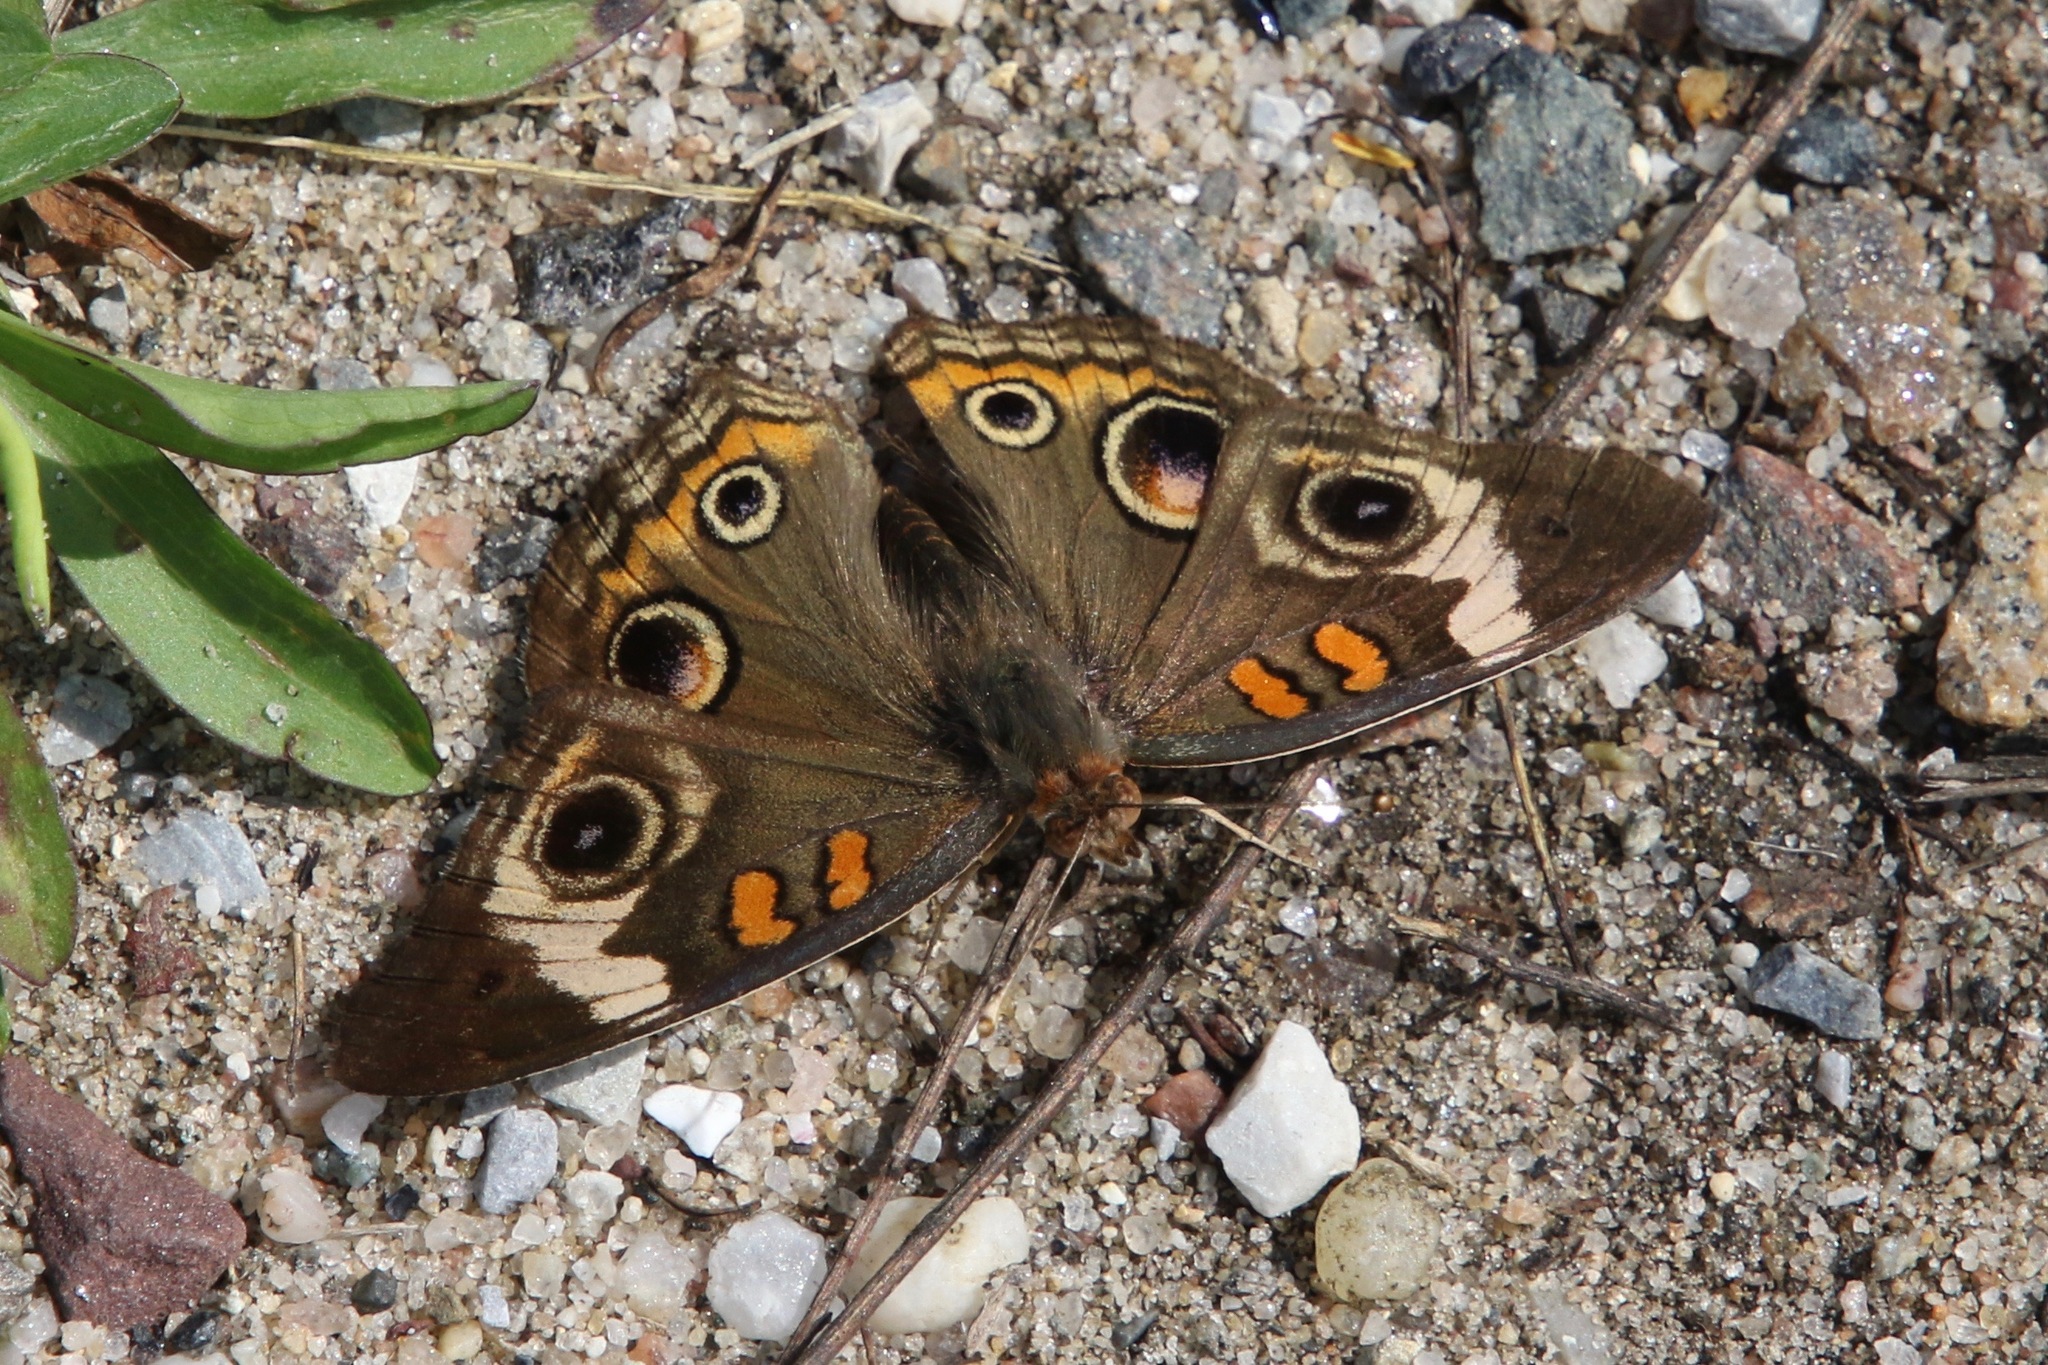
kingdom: Animalia
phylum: Arthropoda
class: Insecta
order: Lepidoptera
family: Nymphalidae
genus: Junonia
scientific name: Junonia coenia
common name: Common buckeye
